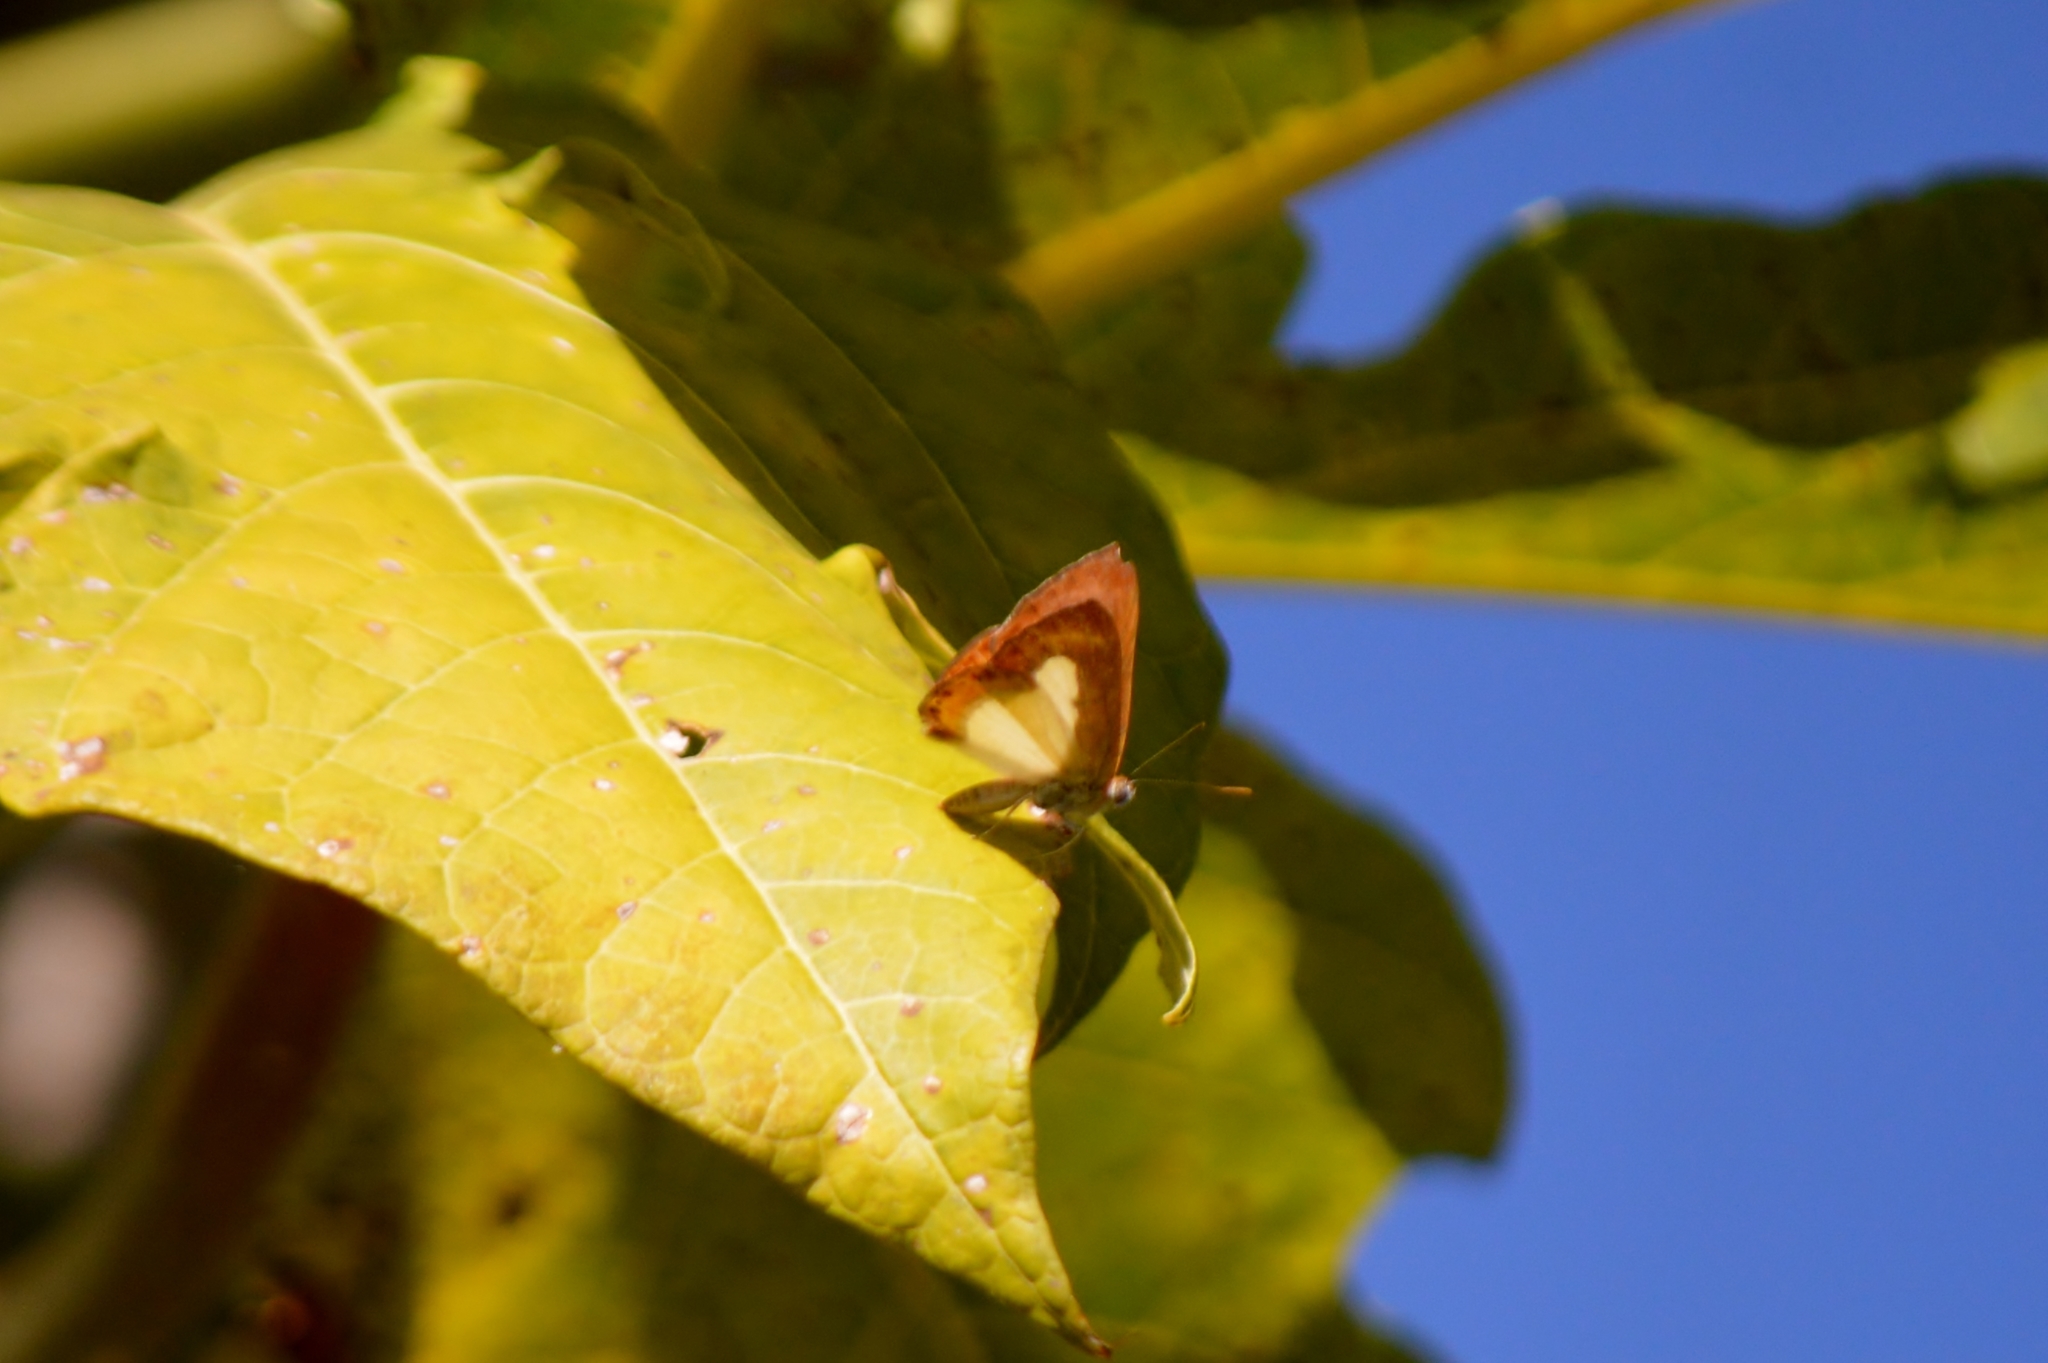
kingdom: Animalia
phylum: Arthropoda
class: Insecta
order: Lepidoptera
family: Riodinidae
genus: Nymula
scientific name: Nymula agle
